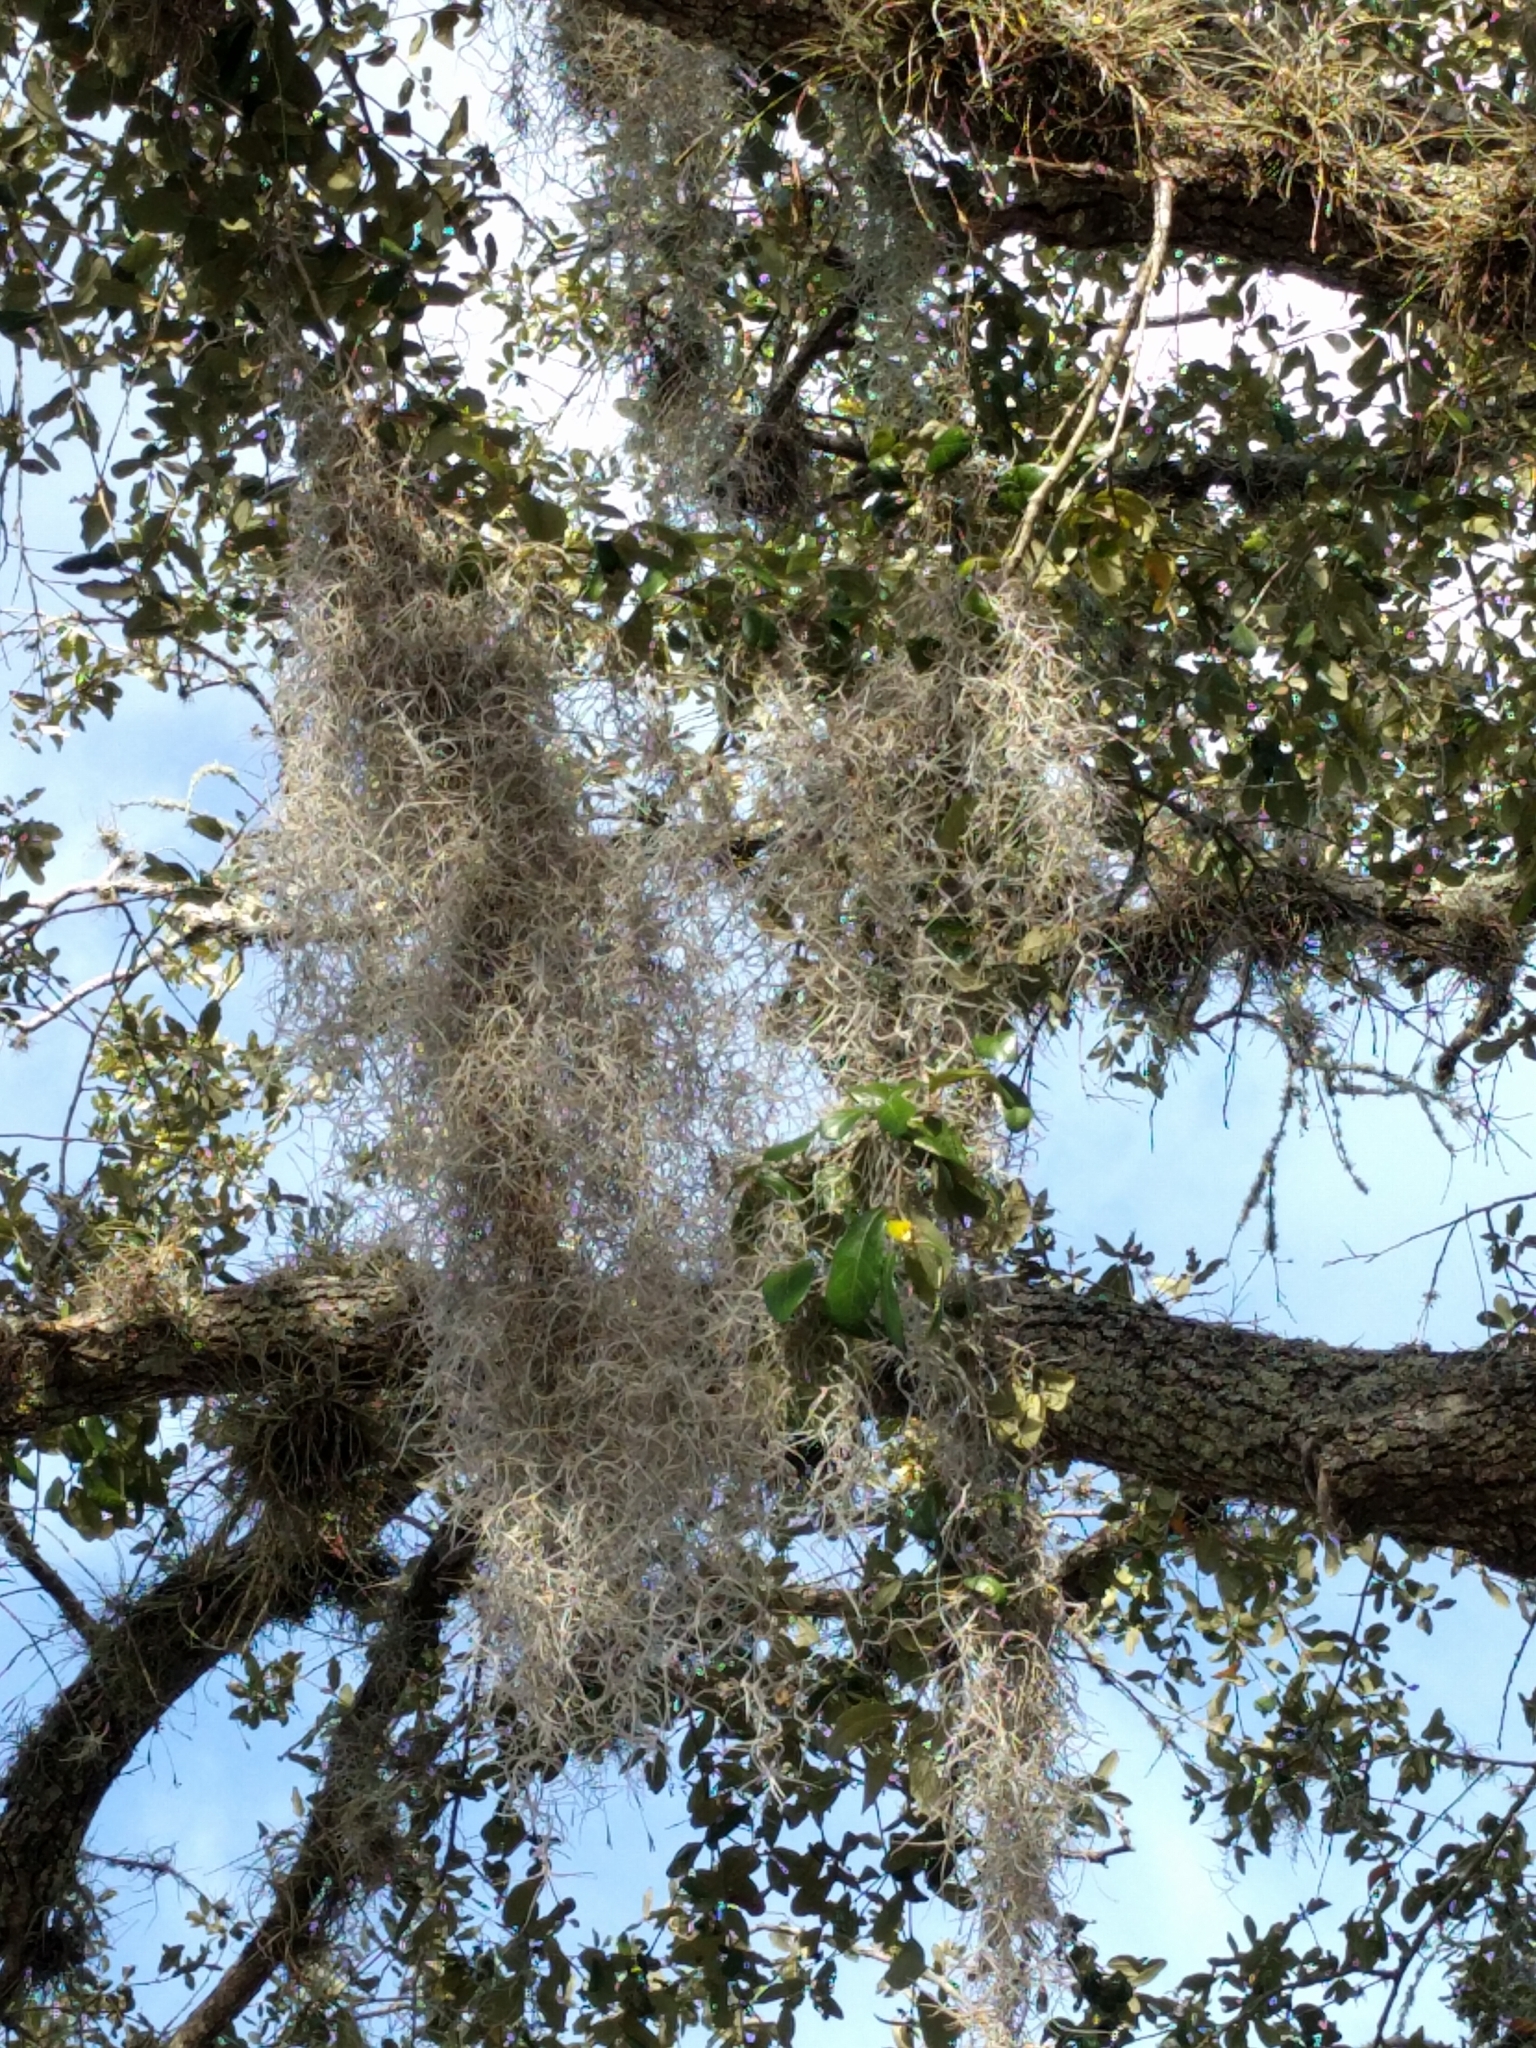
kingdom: Plantae
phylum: Tracheophyta
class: Liliopsida
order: Poales
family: Bromeliaceae
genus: Tillandsia
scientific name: Tillandsia usneoides
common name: Spanish moss
